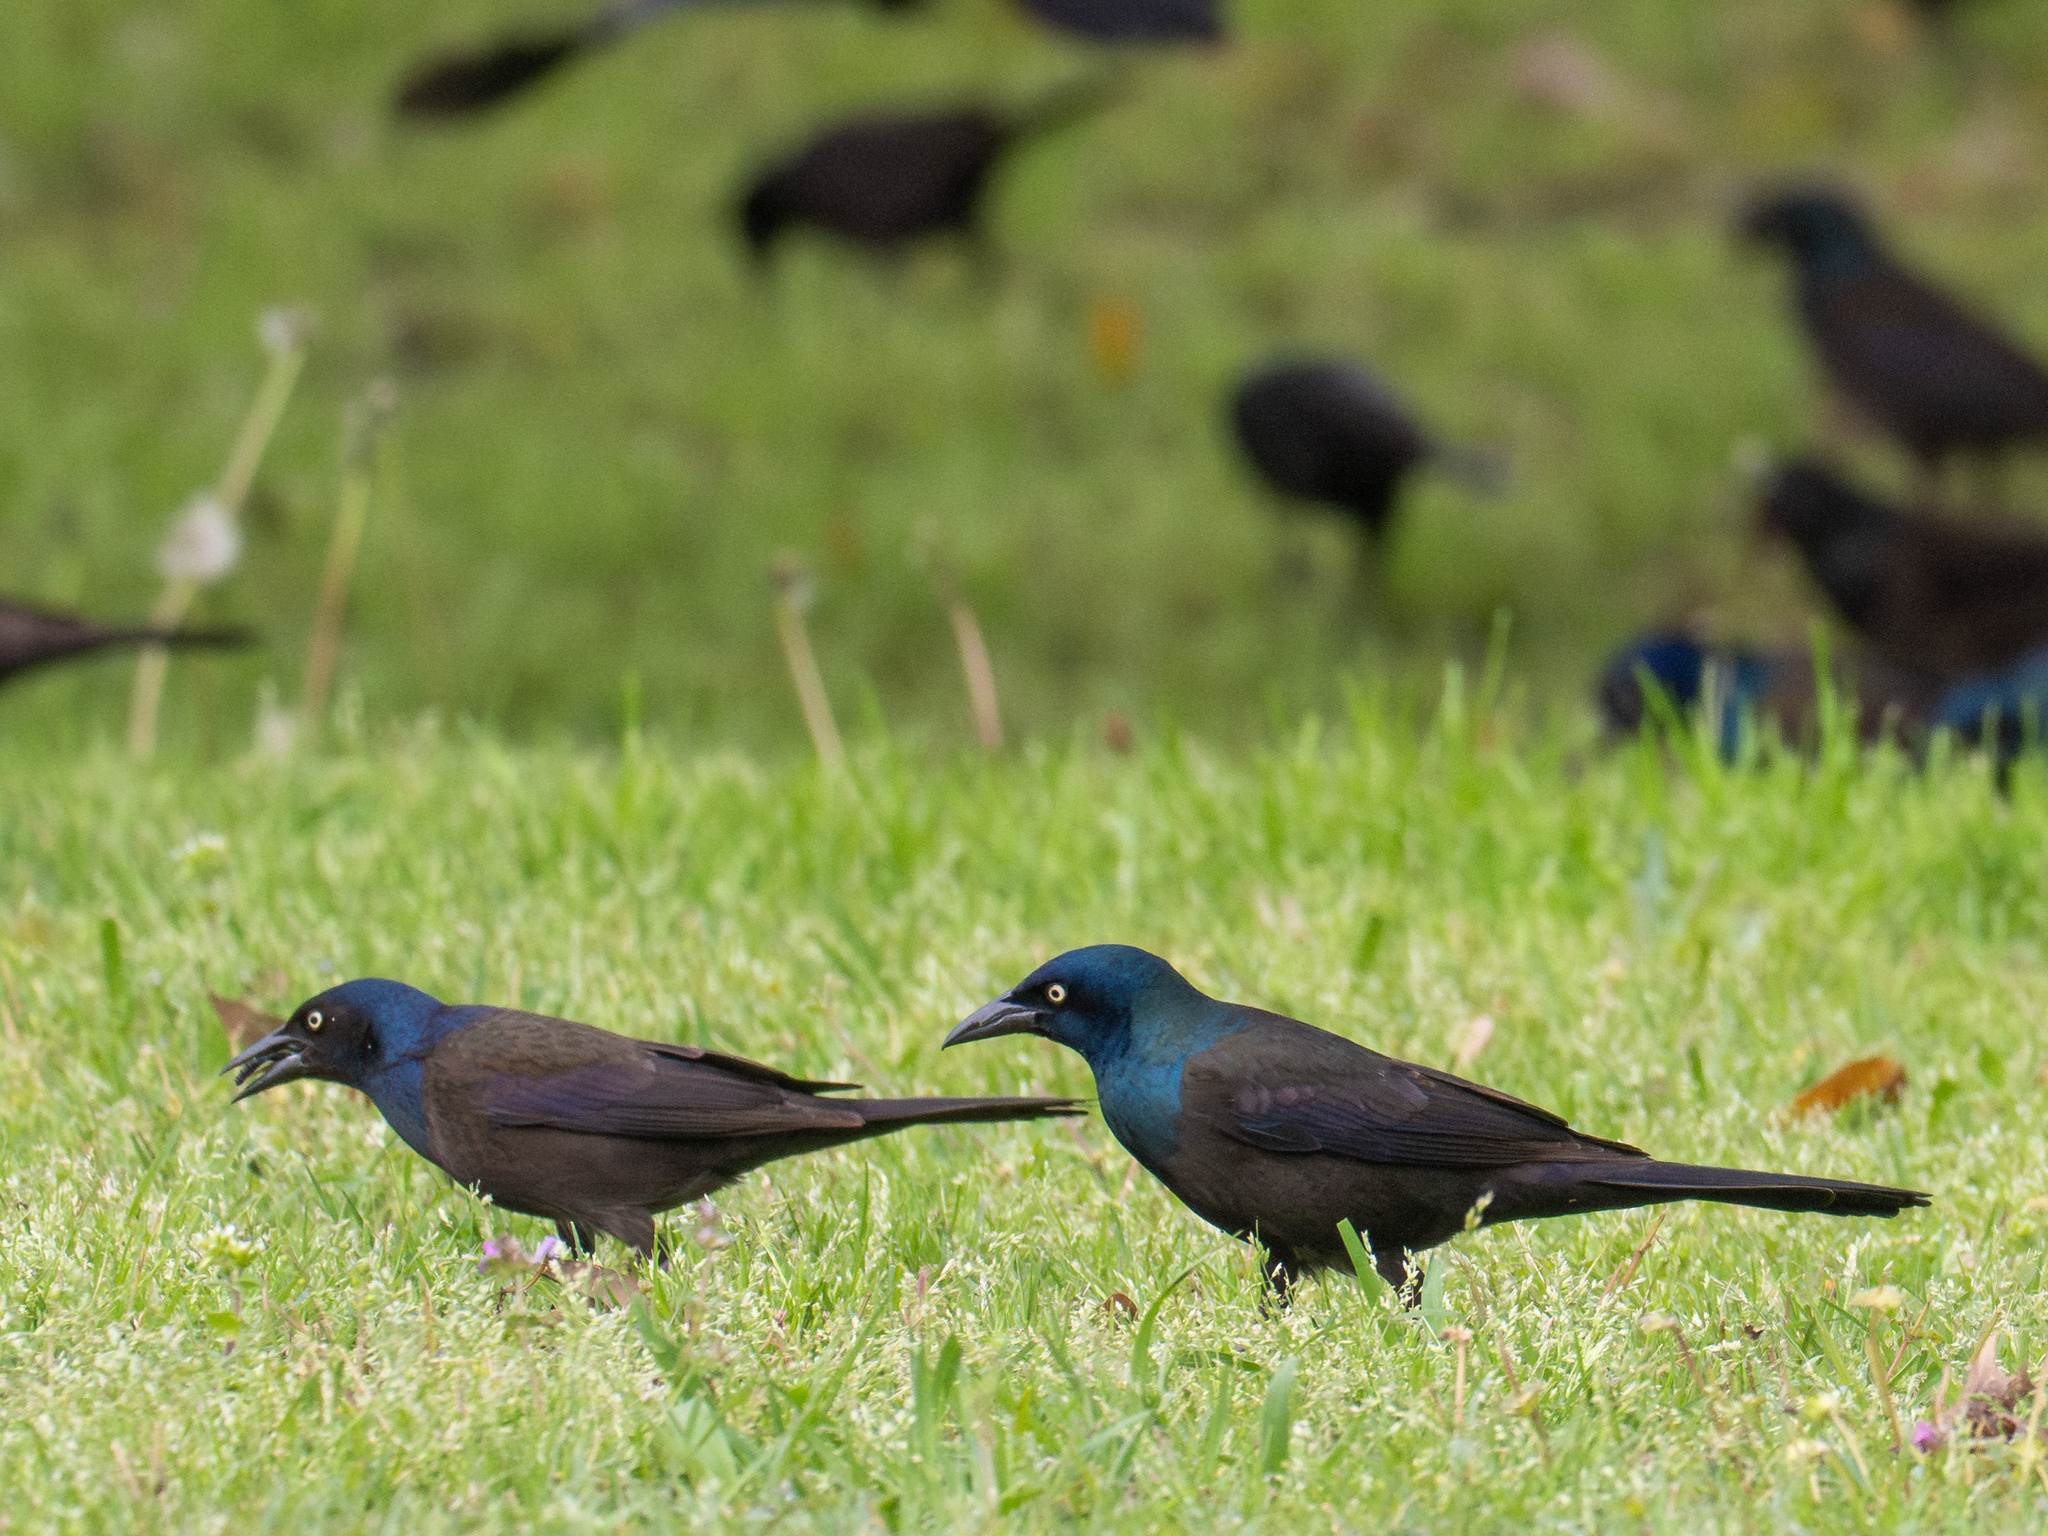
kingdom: Animalia
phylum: Chordata
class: Aves
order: Passeriformes
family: Icteridae
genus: Quiscalus
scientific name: Quiscalus quiscula
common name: Common grackle
